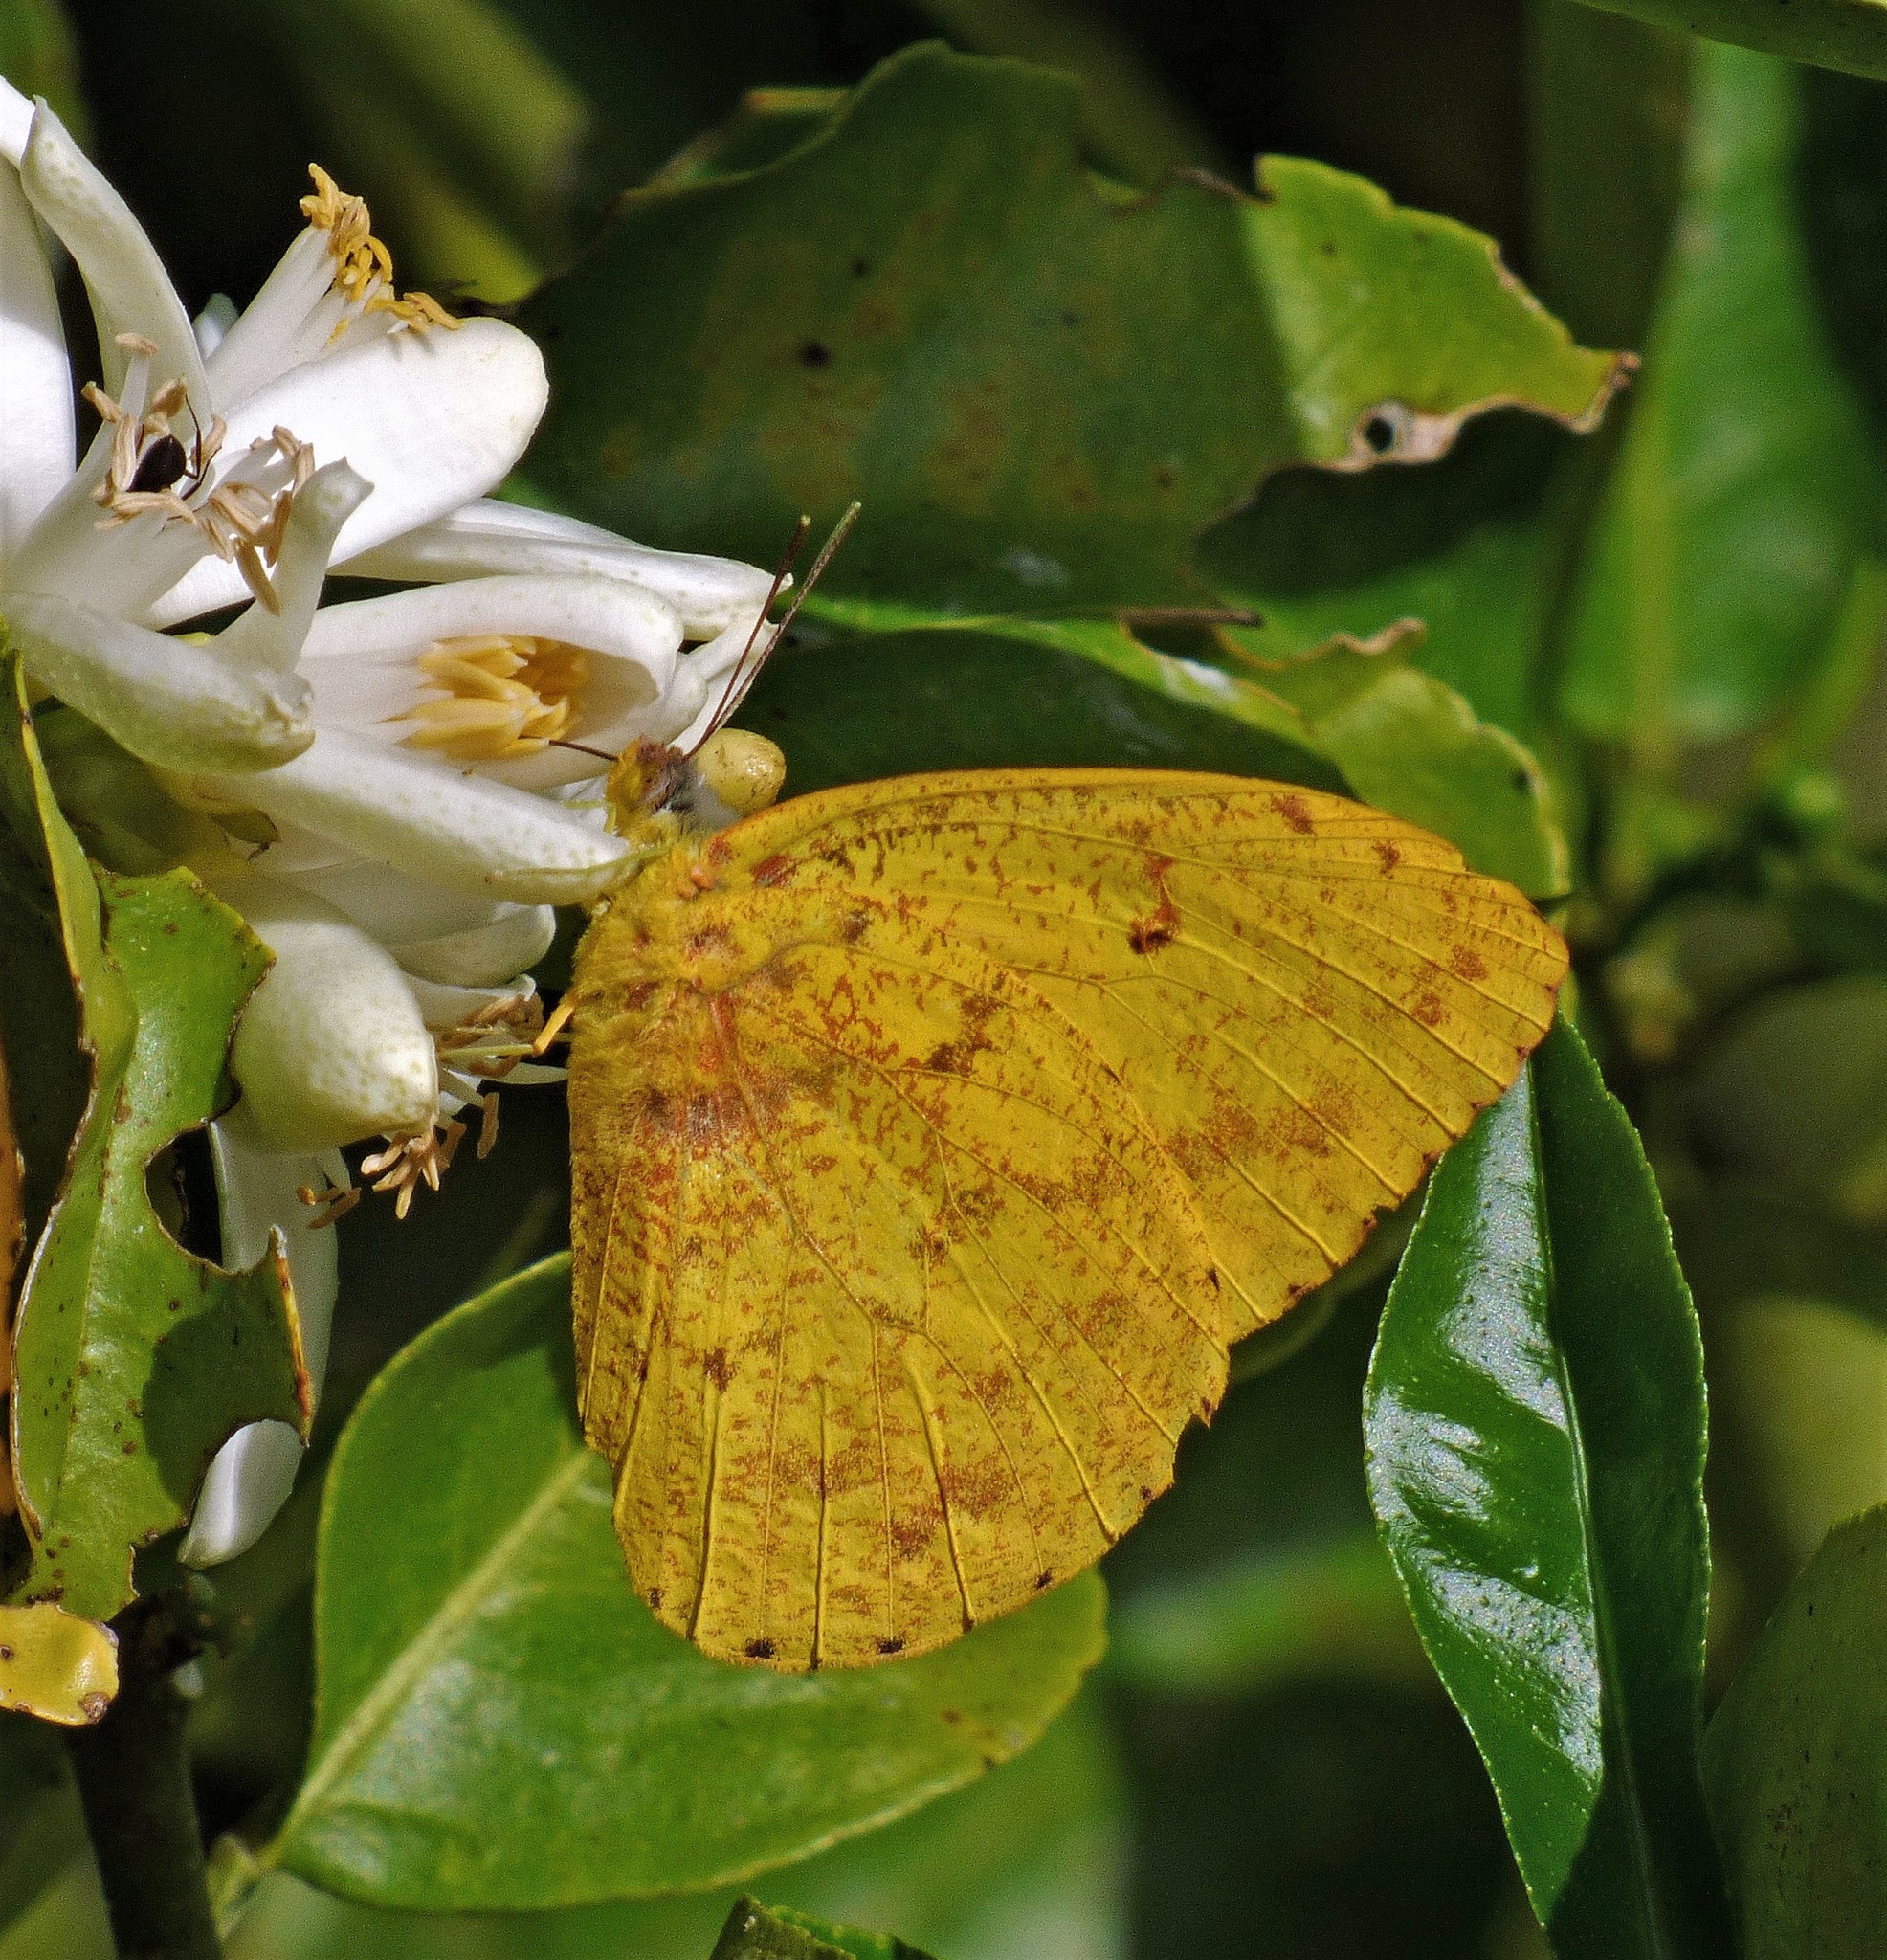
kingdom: Animalia
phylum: Arthropoda
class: Insecta
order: Lepidoptera
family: Pieridae
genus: Phoebis
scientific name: Phoebis argante
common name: Apricot sulphur
